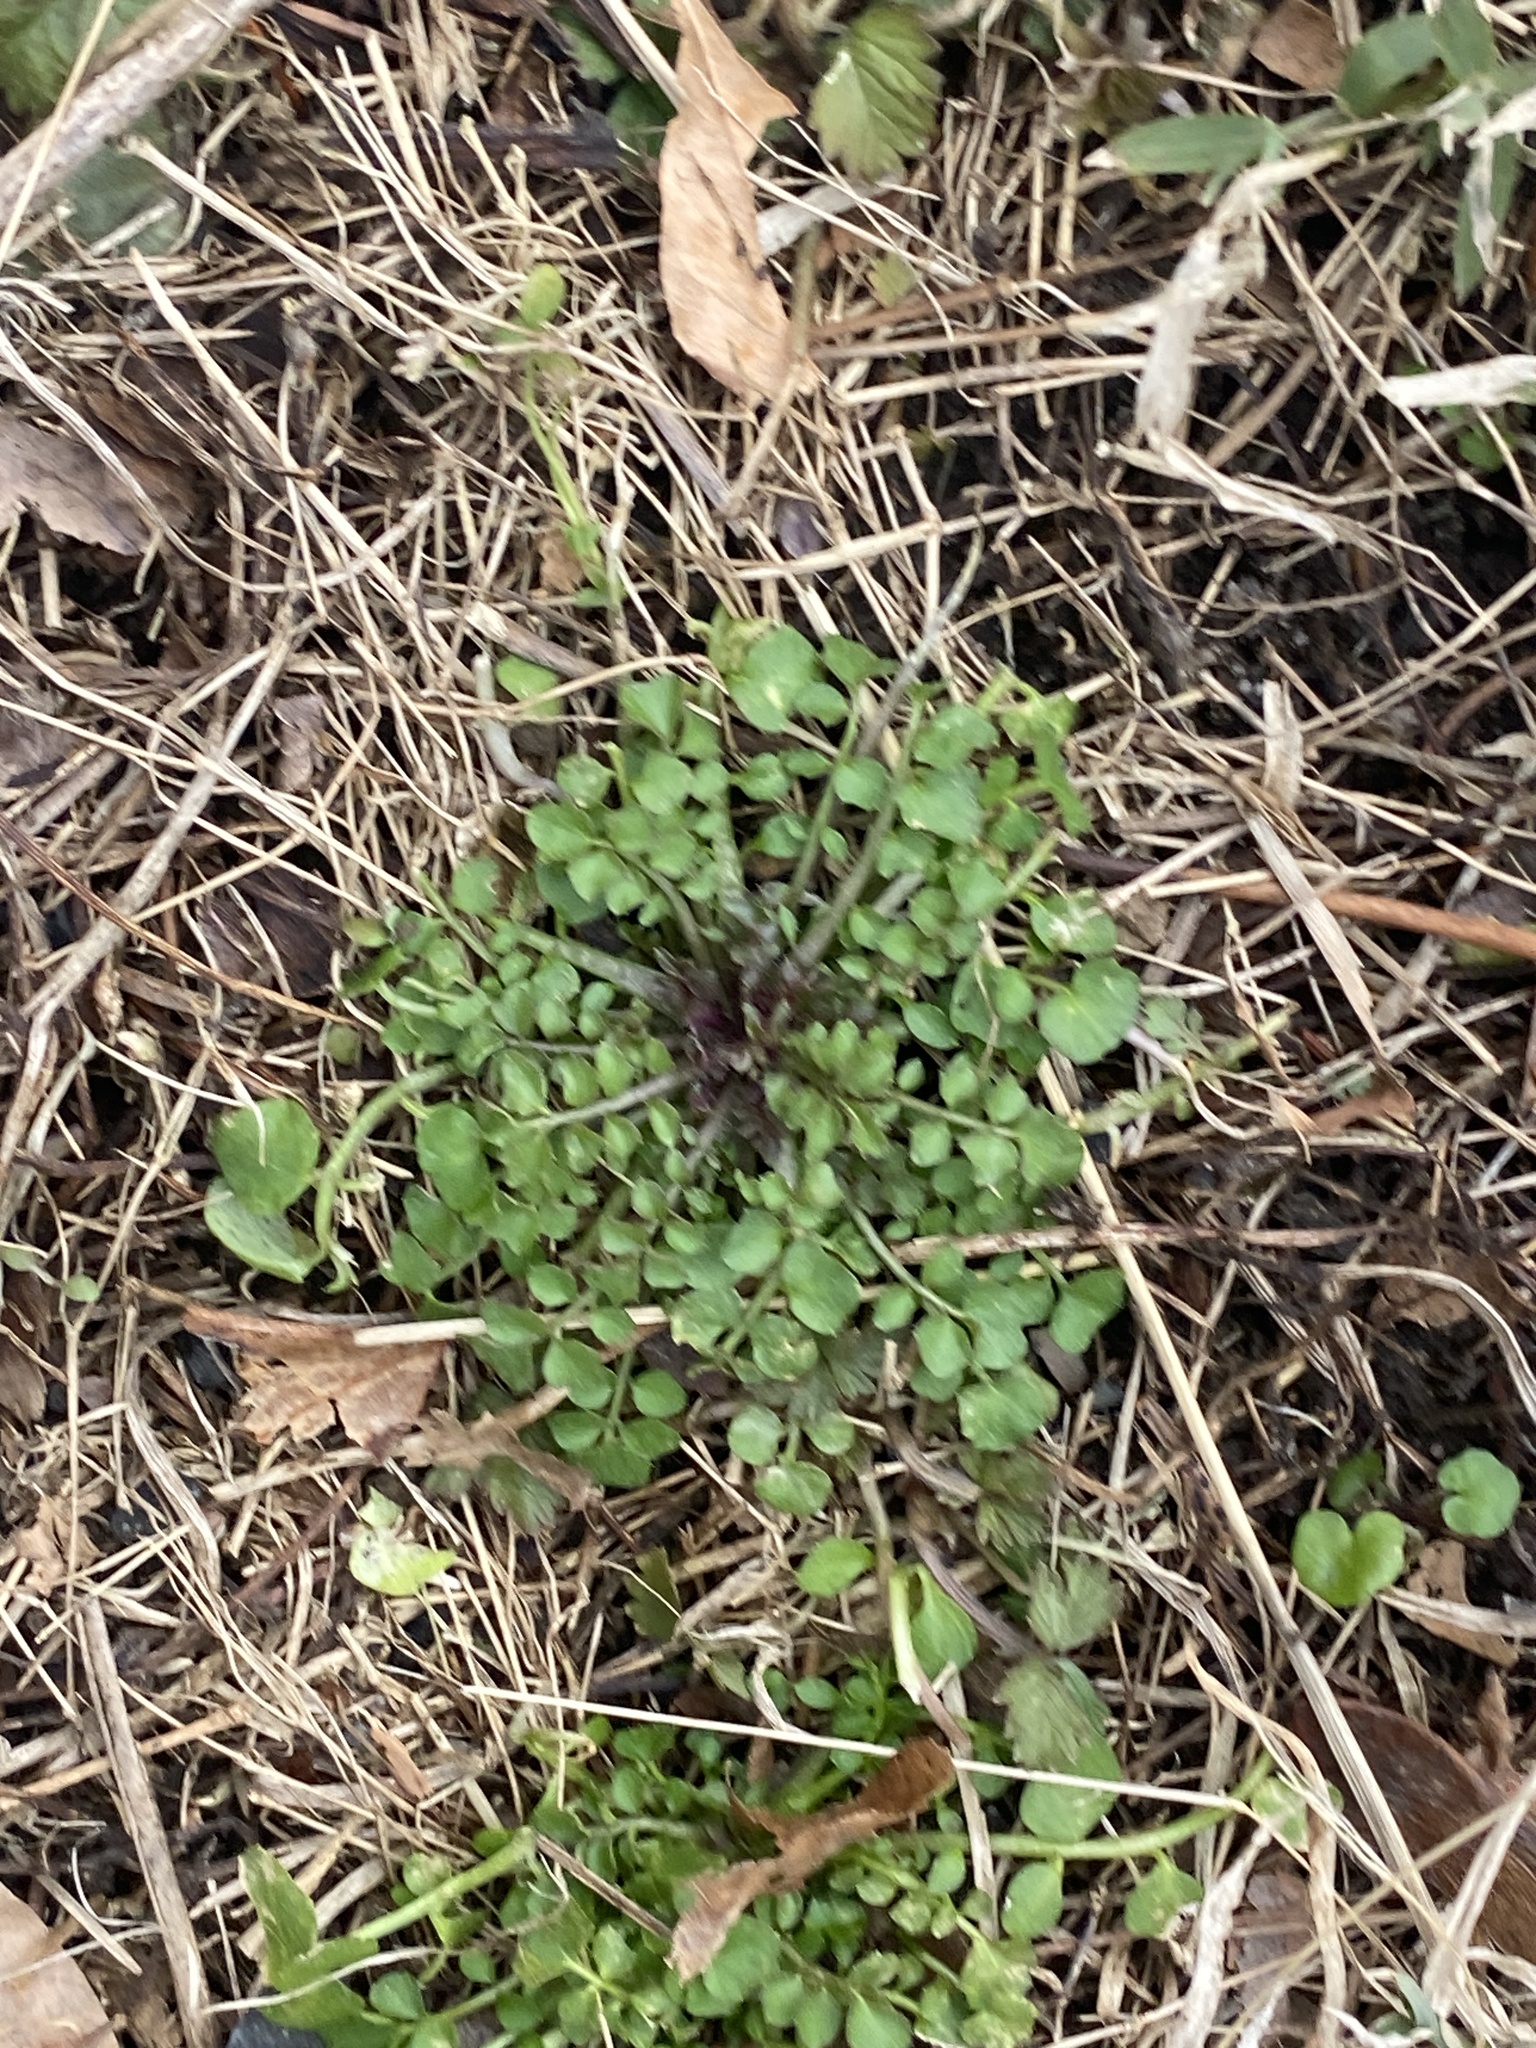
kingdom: Plantae
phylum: Tracheophyta
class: Magnoliopsida
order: Brassicales
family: Brassicaceae
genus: Cardamine
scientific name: Cardamine hirsuta
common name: Hairy bittercress
